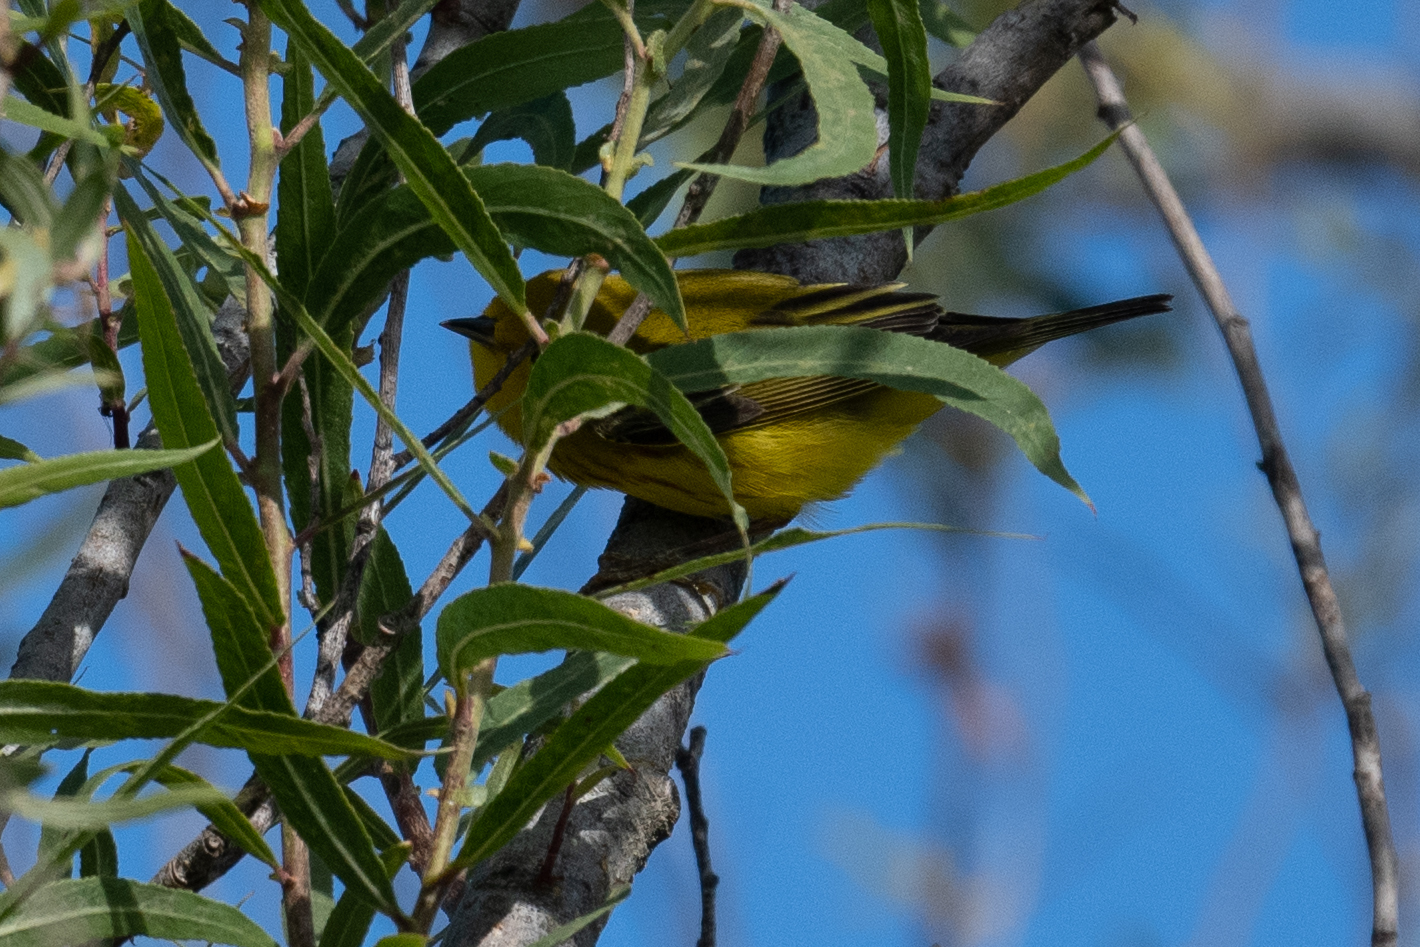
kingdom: Animalia
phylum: Chordata
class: Aves
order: Passeriformes
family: Parulidae
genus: Setophaga
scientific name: Setophaga petechia
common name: Yellow warbler
